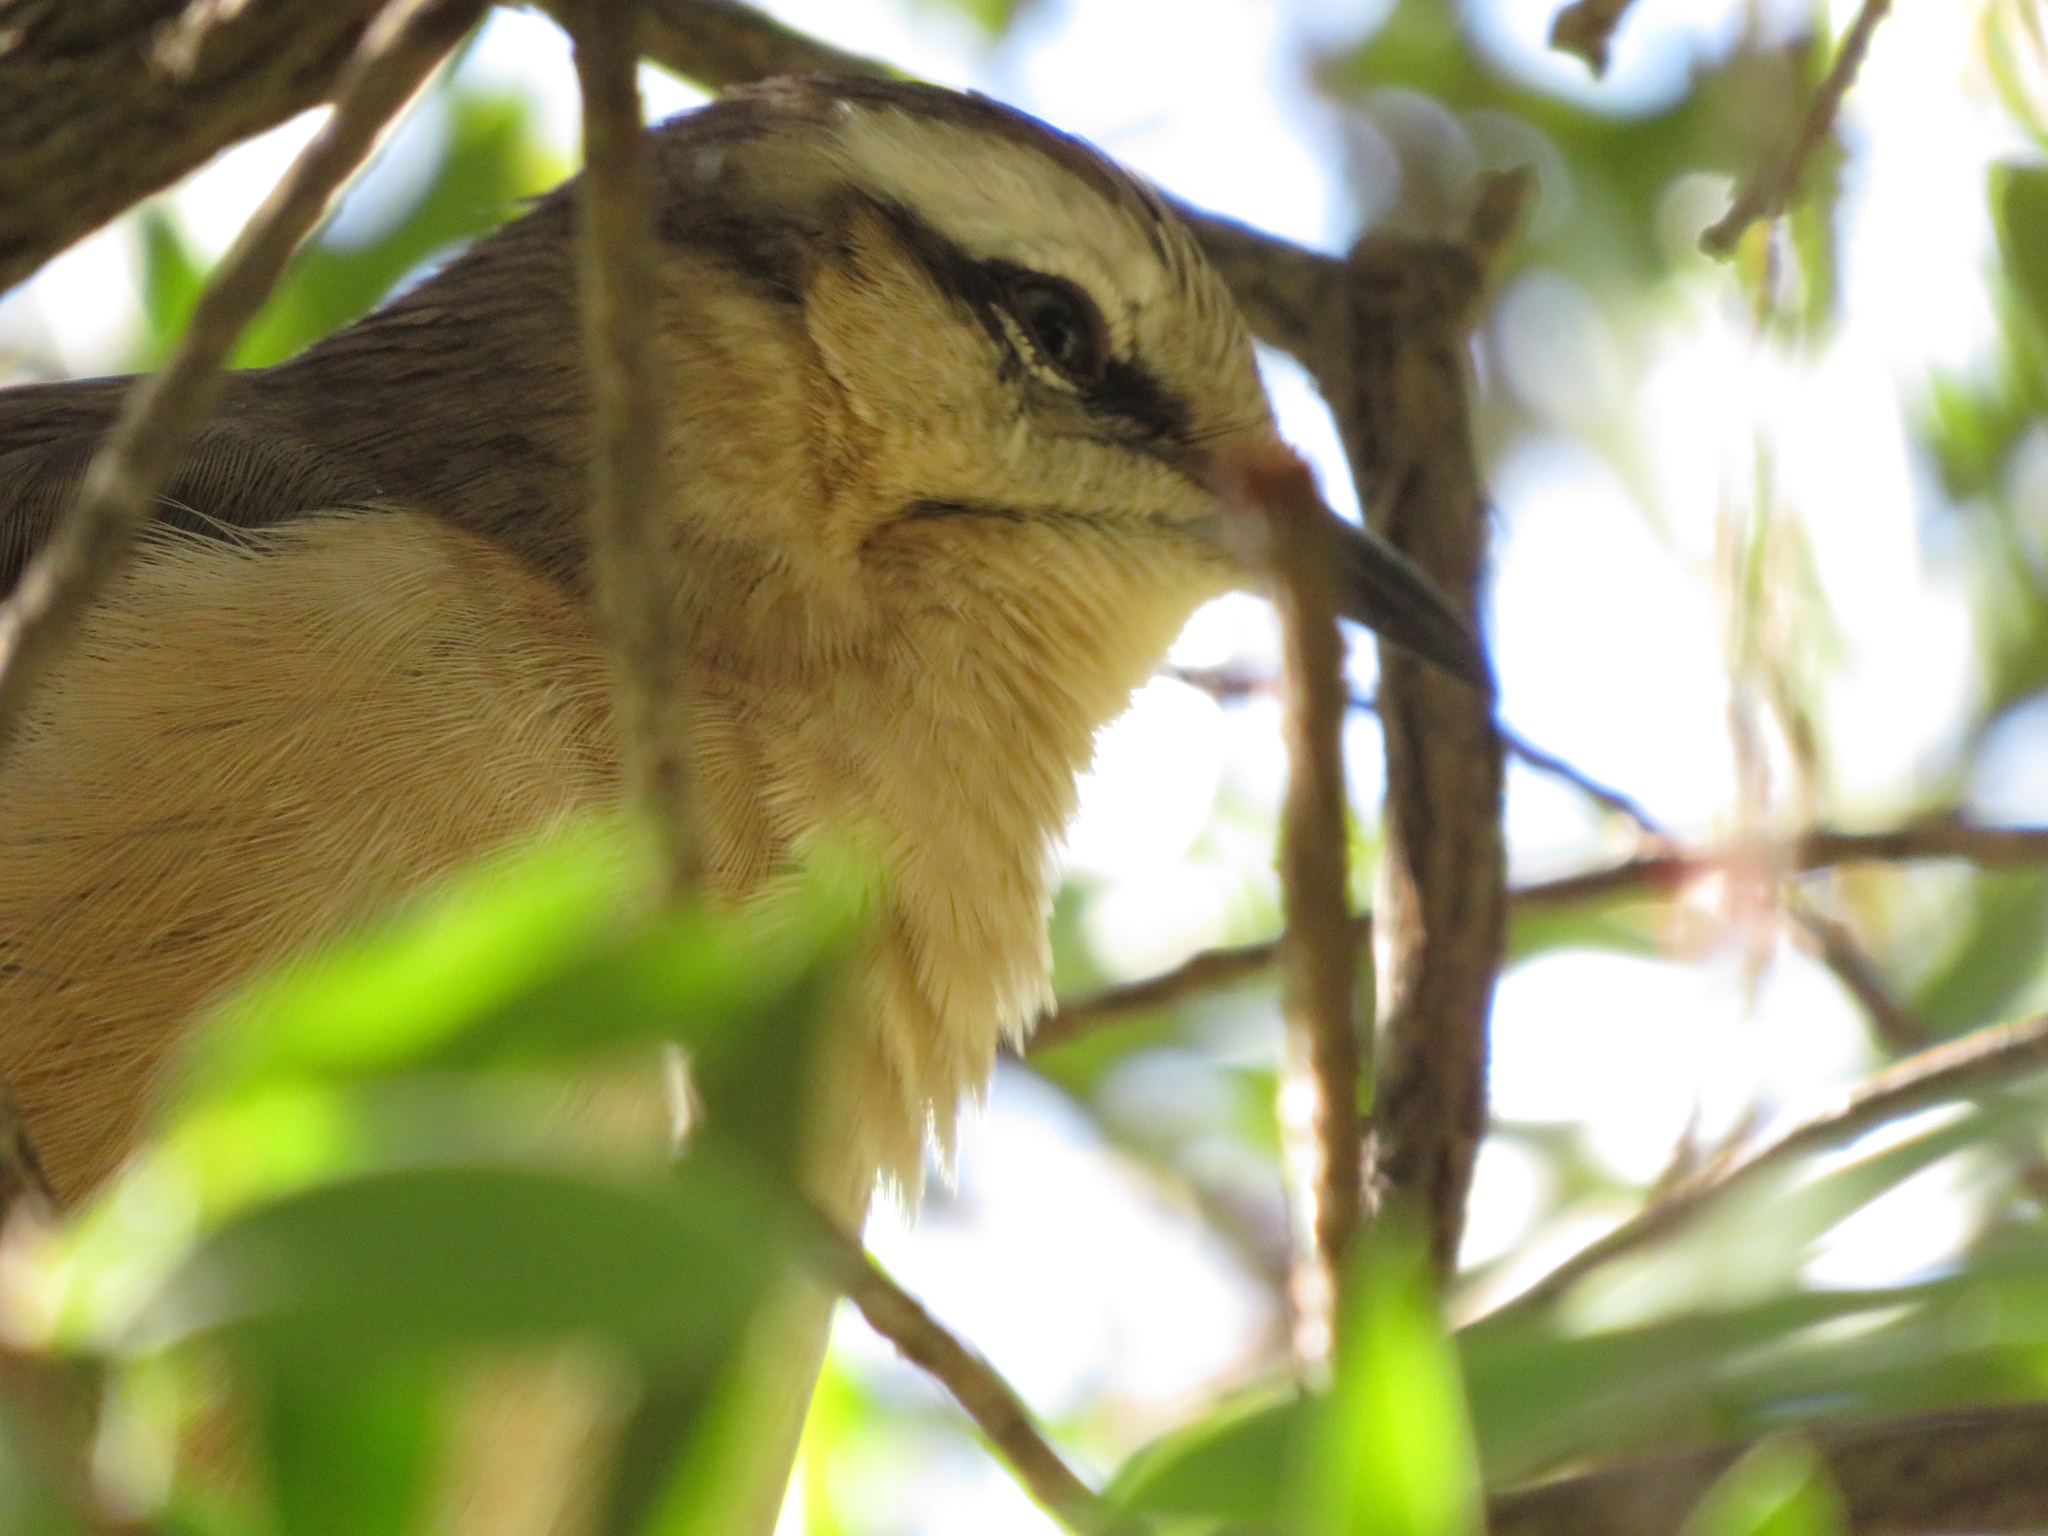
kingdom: Animalia
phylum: Chordata
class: Aves
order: Passeriformes
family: Mimidae
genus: Mimus
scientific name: Mimus saturninus
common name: Chalk-browed mockingbird
